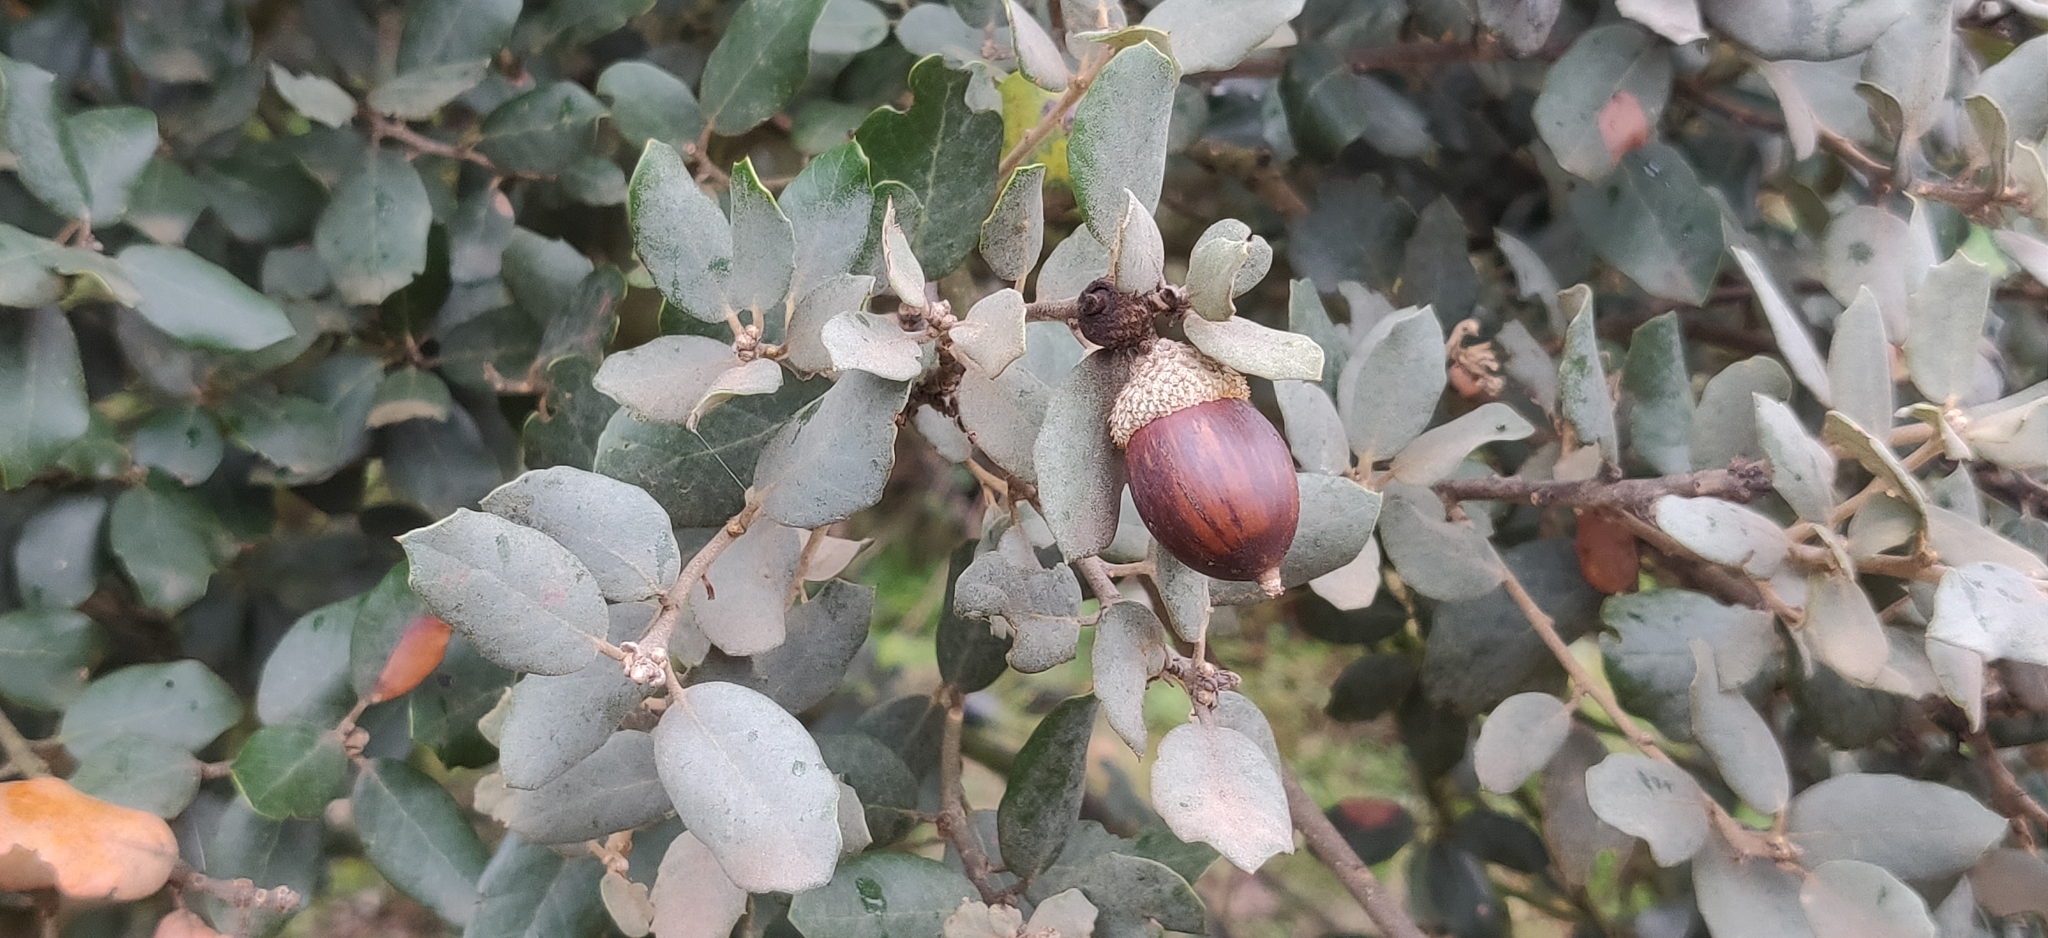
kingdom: Plantae
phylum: Tracheophyta
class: Magnoliopsida
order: Fagales
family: Fagaceae
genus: Quercus
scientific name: Quercus rotundifolia
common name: Holm oak
